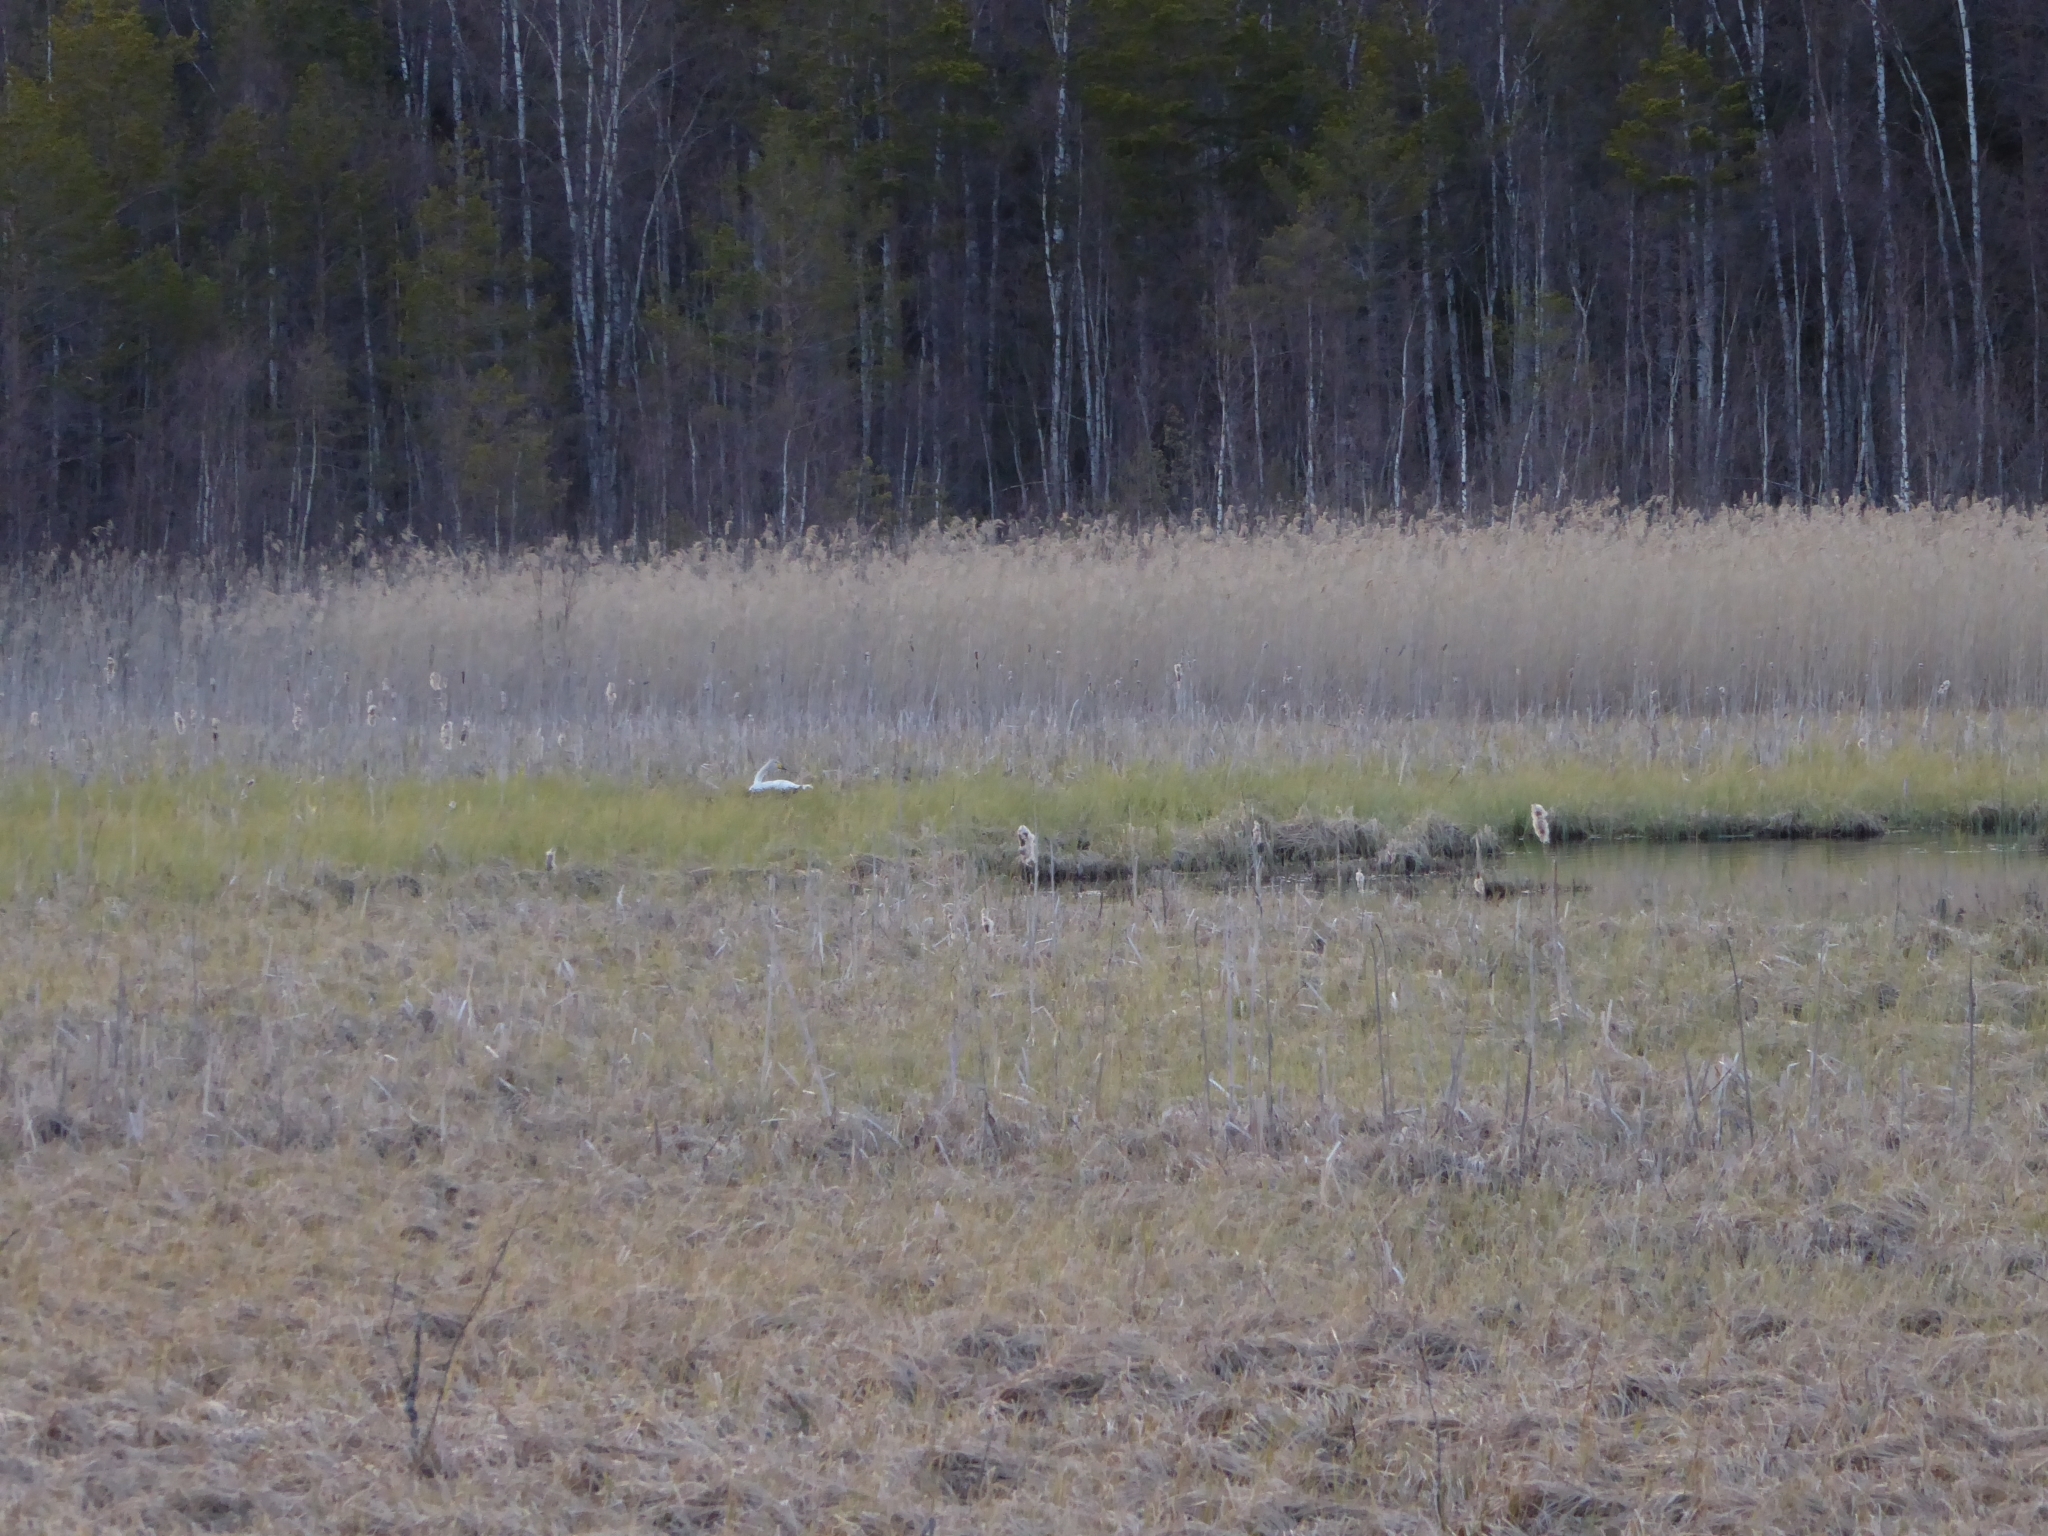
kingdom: Animalia
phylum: Chordata
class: Aves
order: Anseriformes
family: Anatidae
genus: Cygnus
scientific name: Cygnus cygnus
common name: Whooper swan
